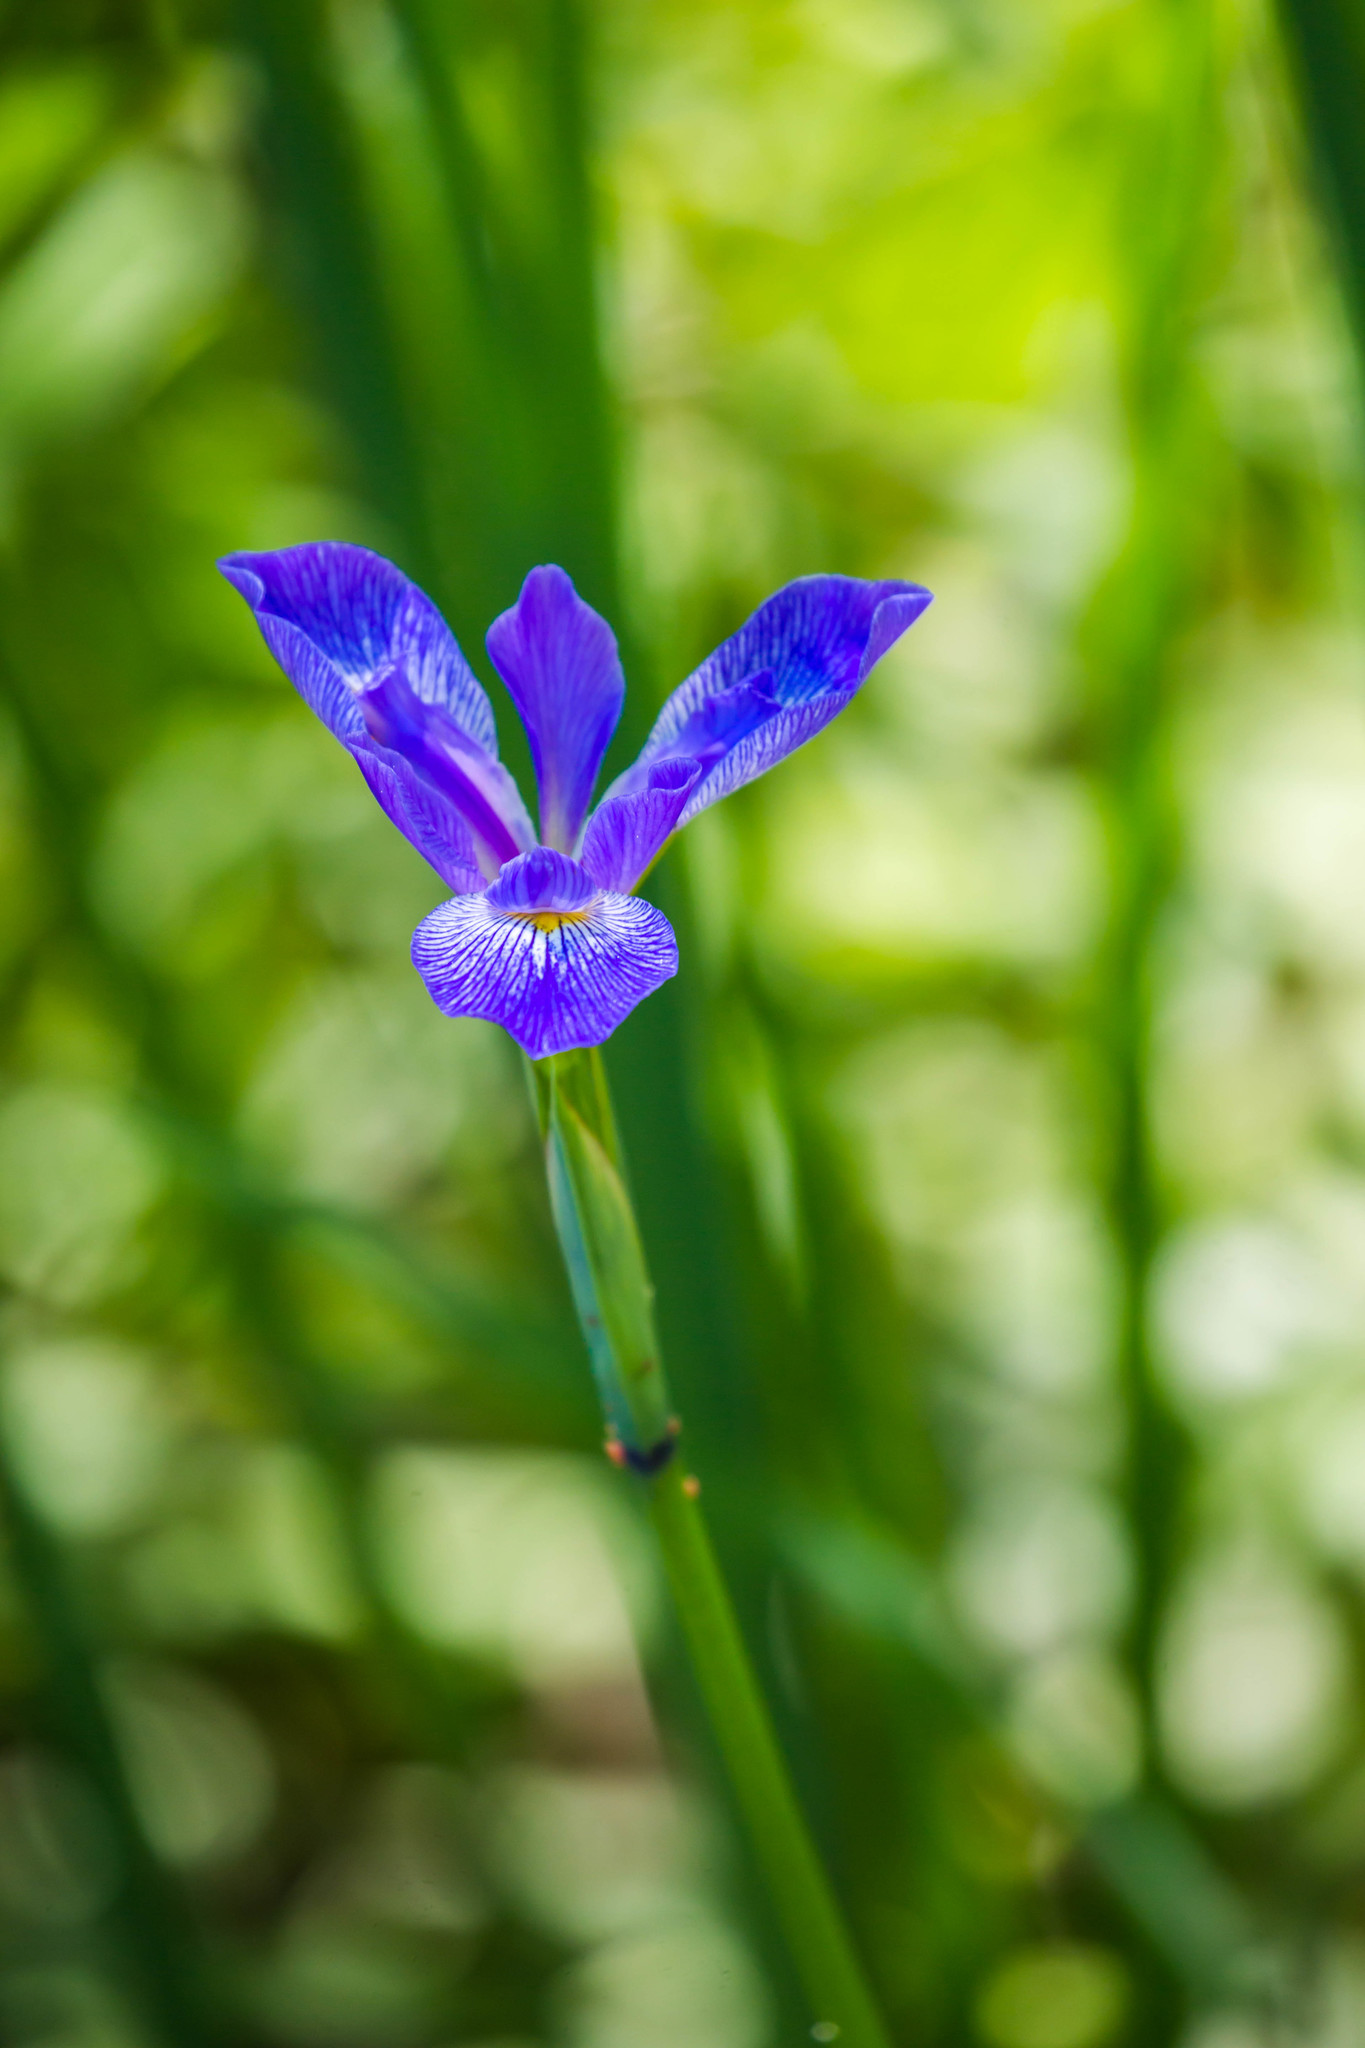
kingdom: Plantae
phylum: Tracheophyta
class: Liliopsida
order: Asparagales
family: Iridaceae
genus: Iris
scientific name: Iris virginica
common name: Southern blue flag
